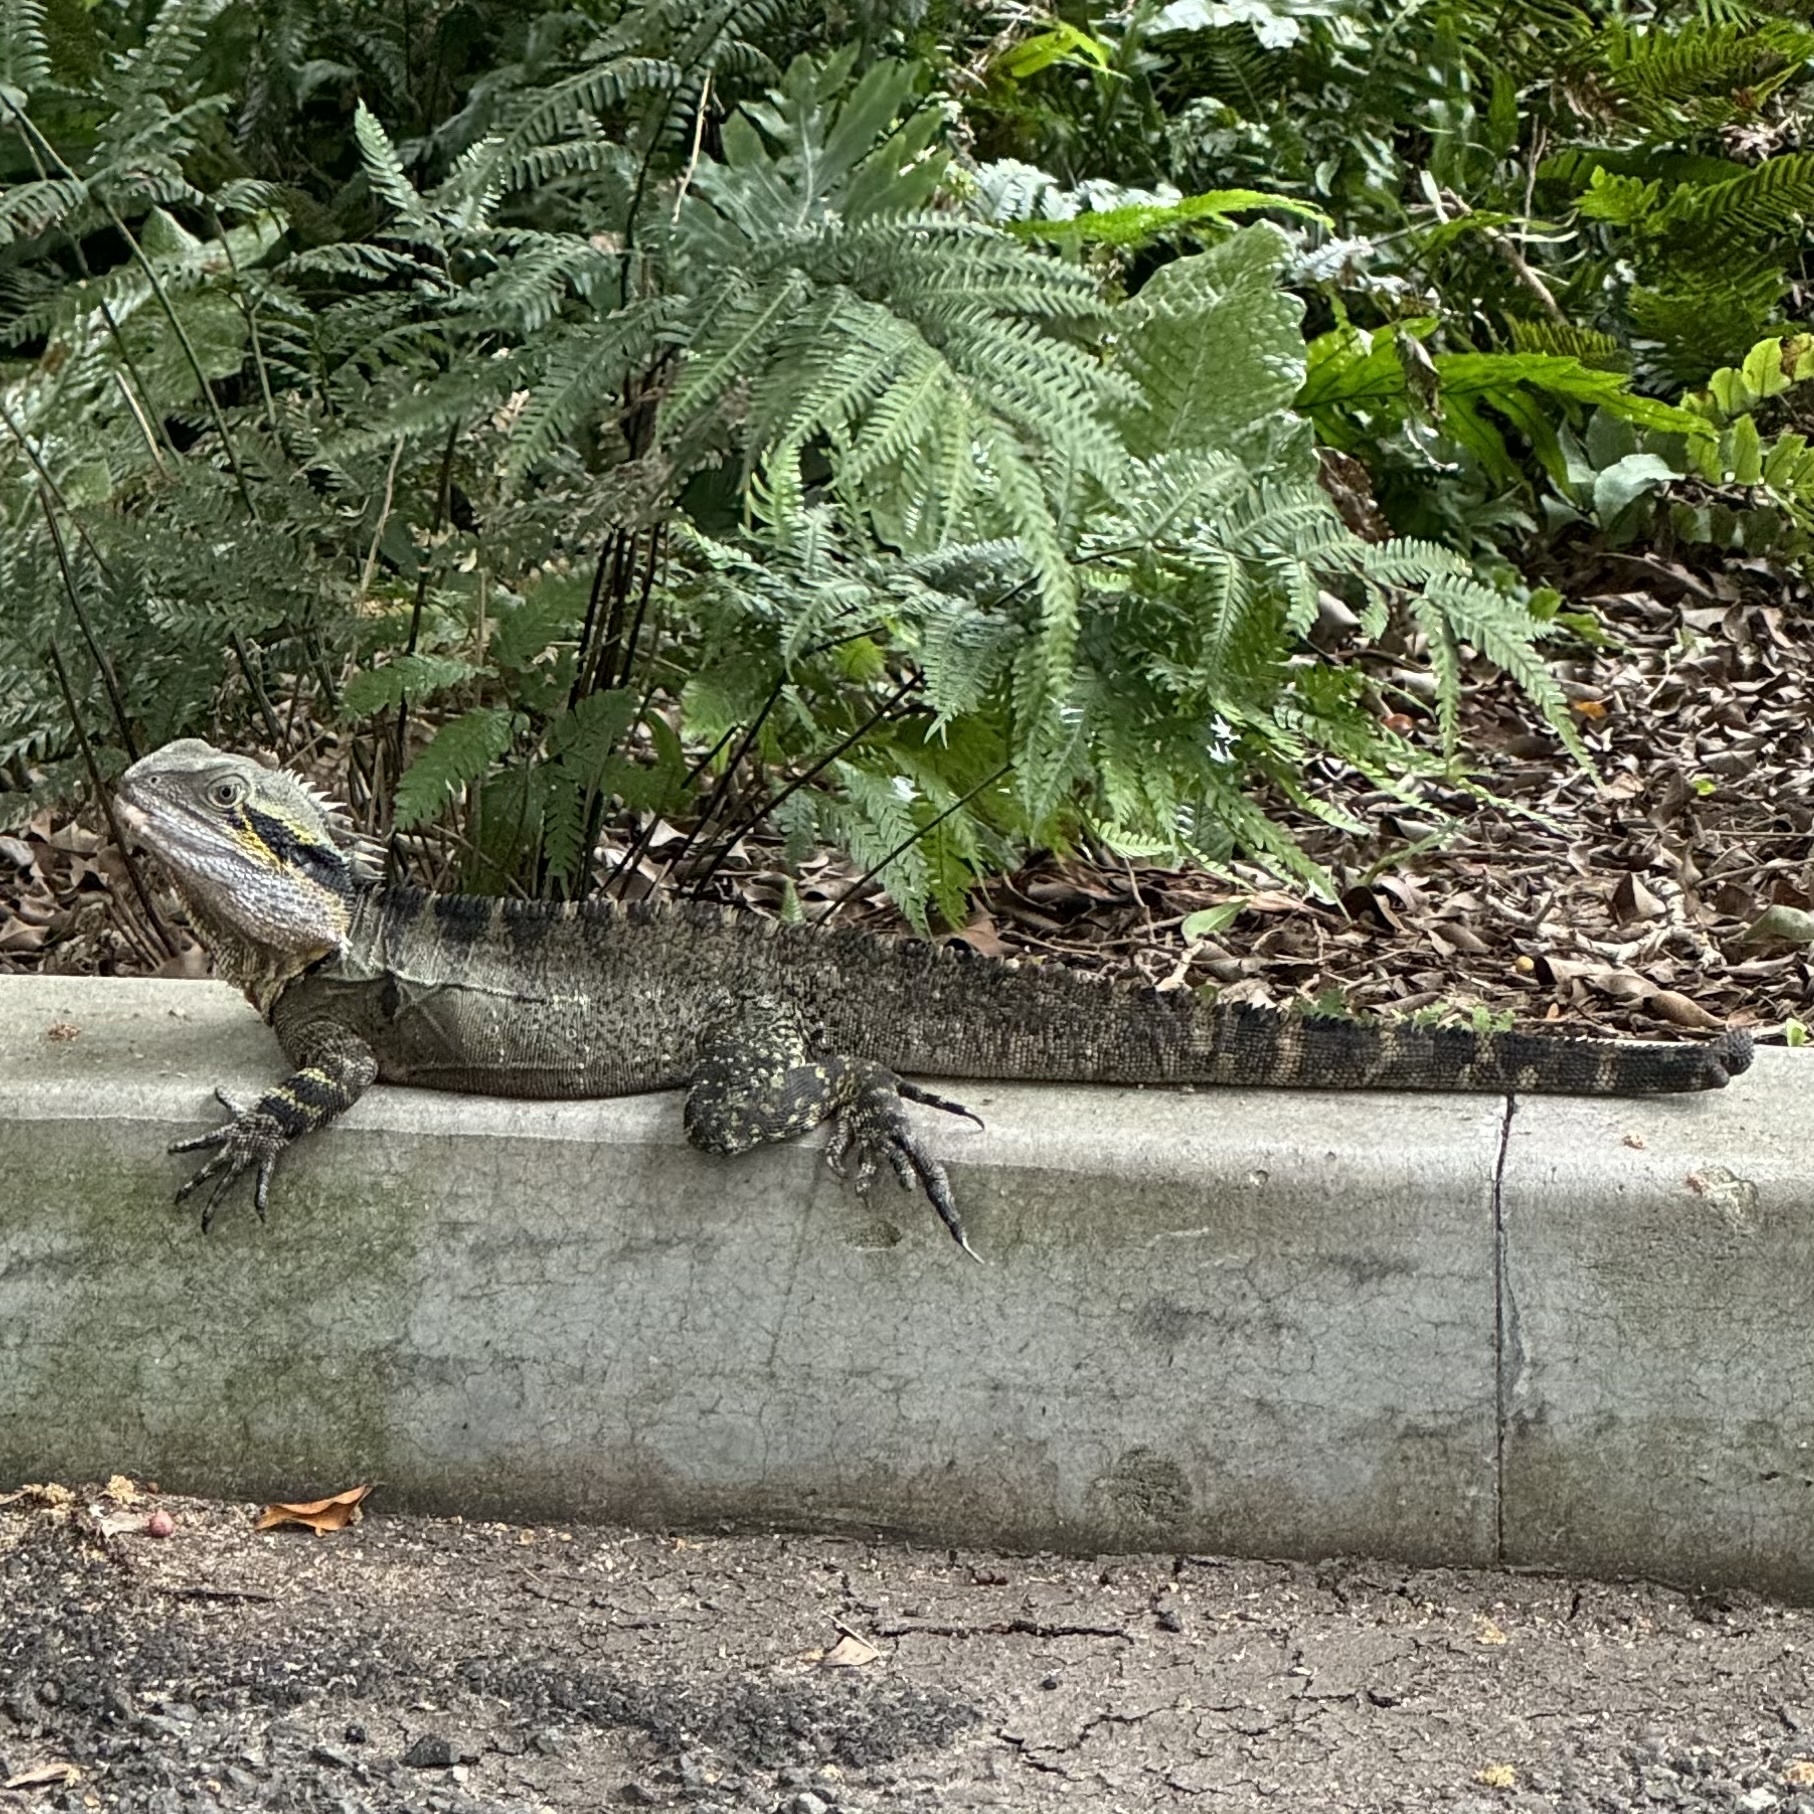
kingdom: Animalia
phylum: Chordata
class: Squamata
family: Agamidae
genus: Intellagama
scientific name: Intellagama lesueurii
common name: Eastern water dragon
